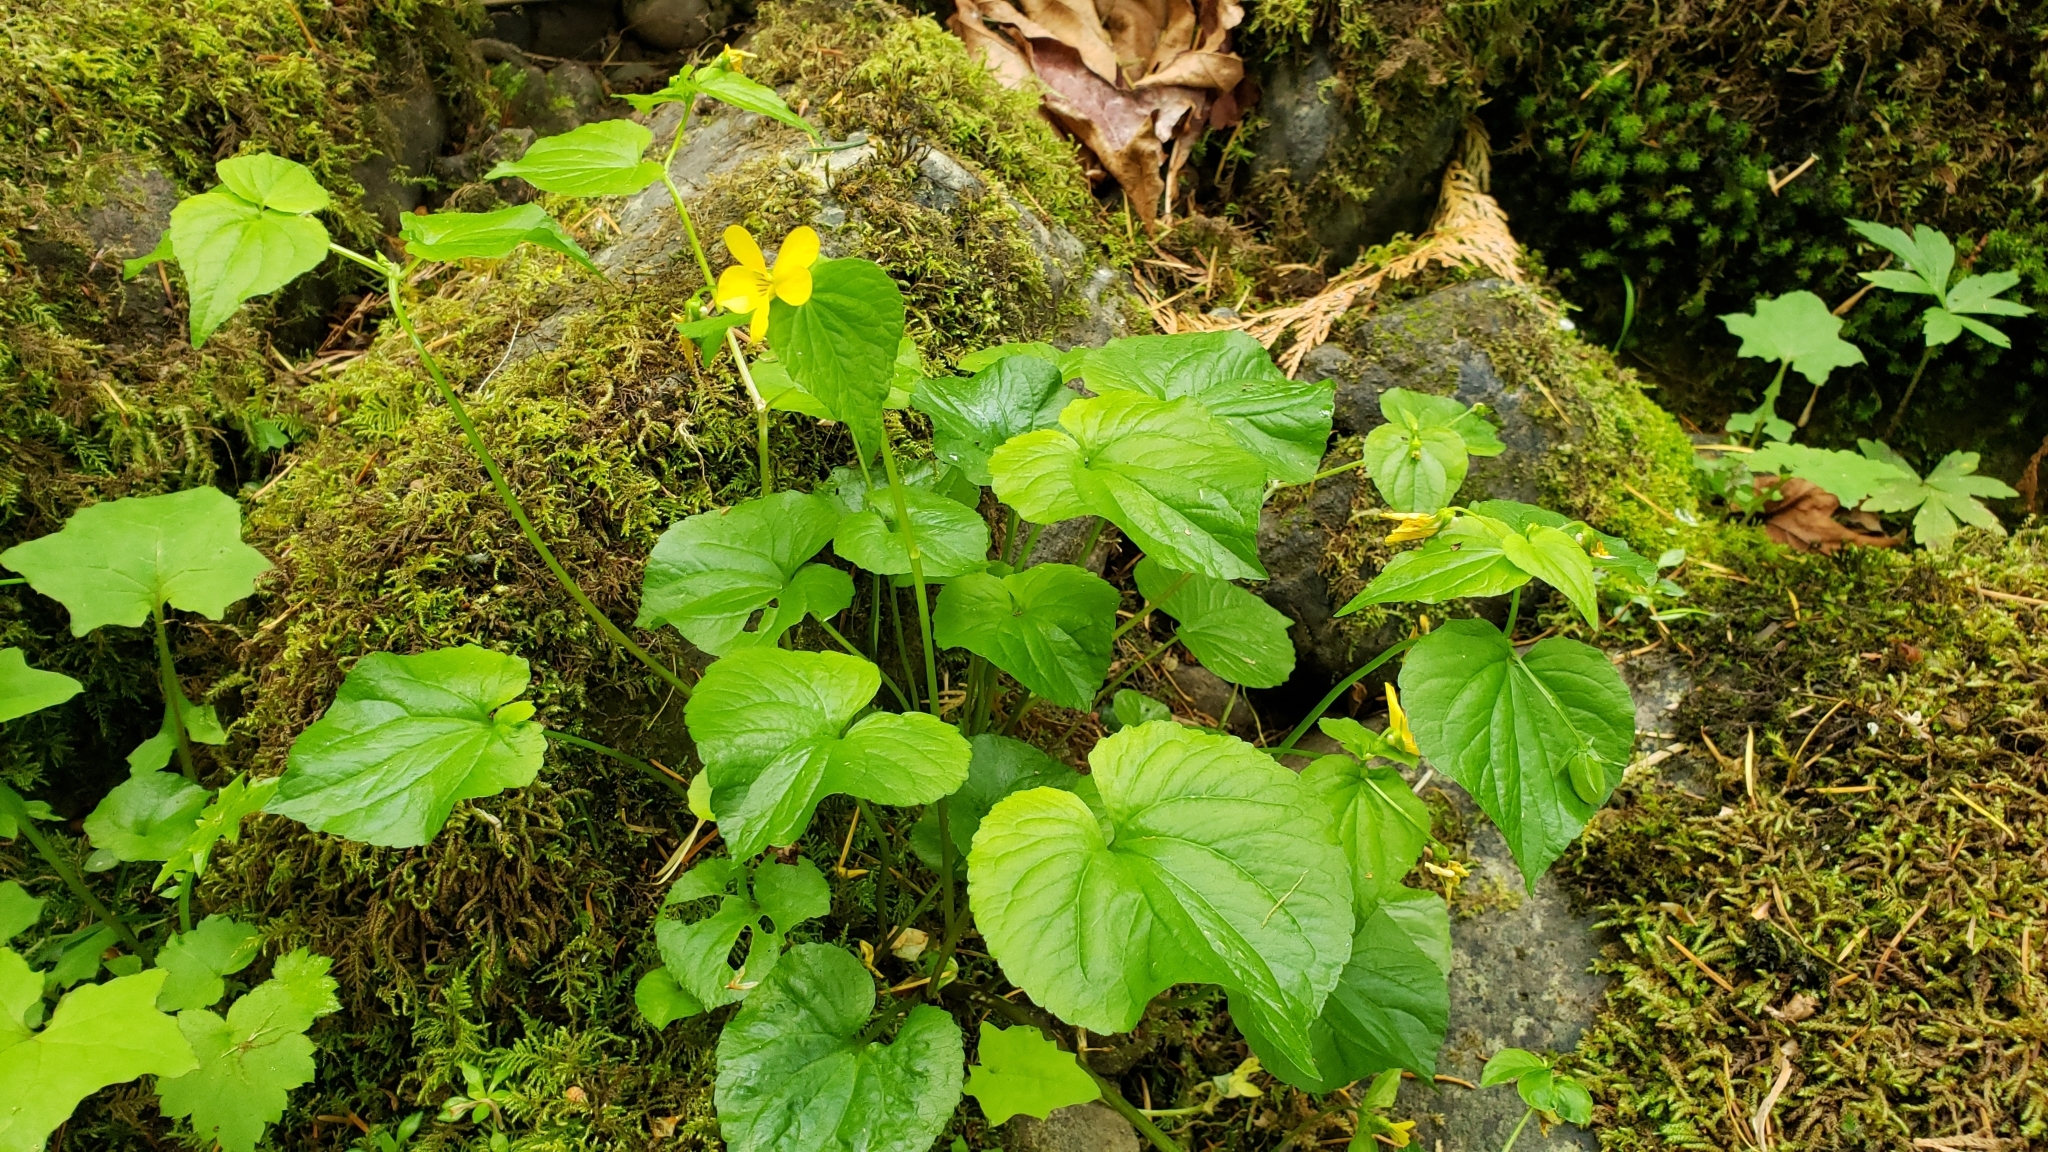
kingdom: Plantae
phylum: Tracheophyta
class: Magnoliopsida
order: Malpighiales
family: Violaceae
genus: Viola
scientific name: Viola glabella
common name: Stream violet
